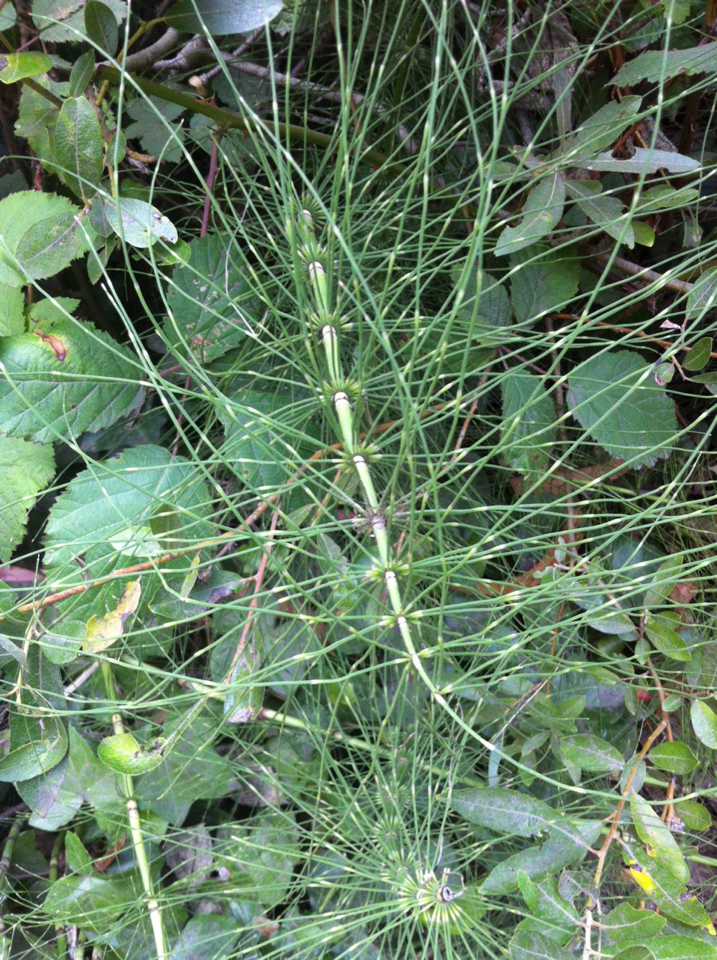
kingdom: Plantae
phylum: Tracheophyta
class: Polypodiopsida
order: Equisetales
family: Equisetaceae
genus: Equisetum
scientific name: Equisetum telmateia
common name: Great horsetail
